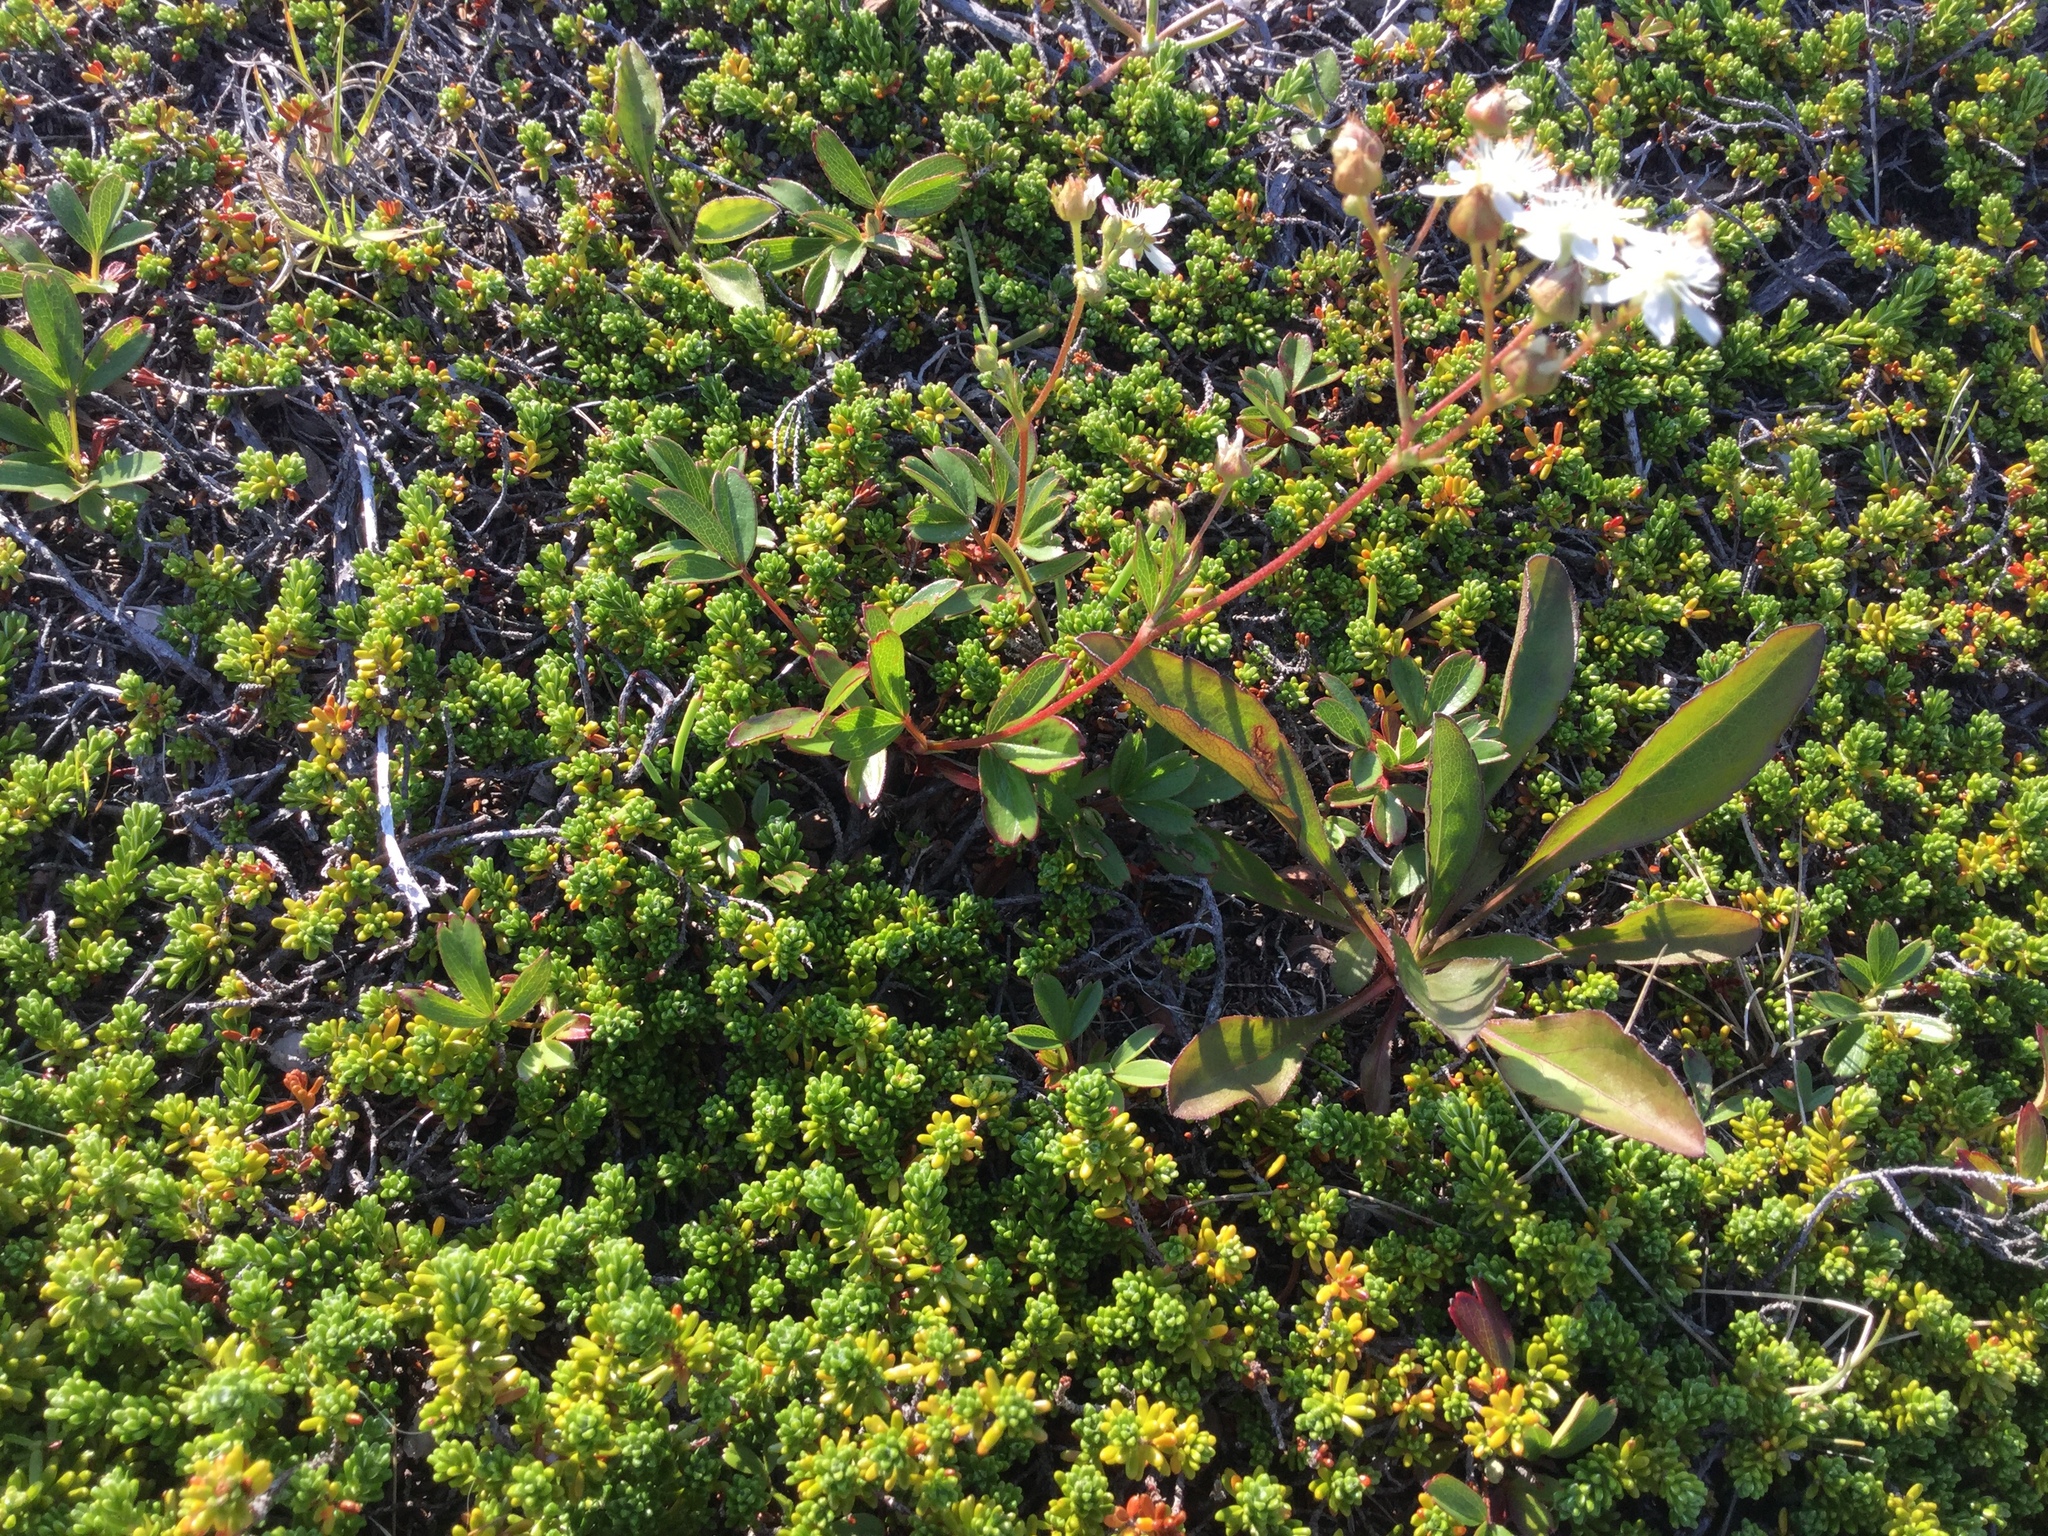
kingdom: Plantae
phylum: Tracheophyta
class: Magnoliopsida
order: Rosales
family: Rosaceae
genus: Sibbaldia
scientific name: Sibbaldia tridentata
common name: Three-toothed cinquefoil
